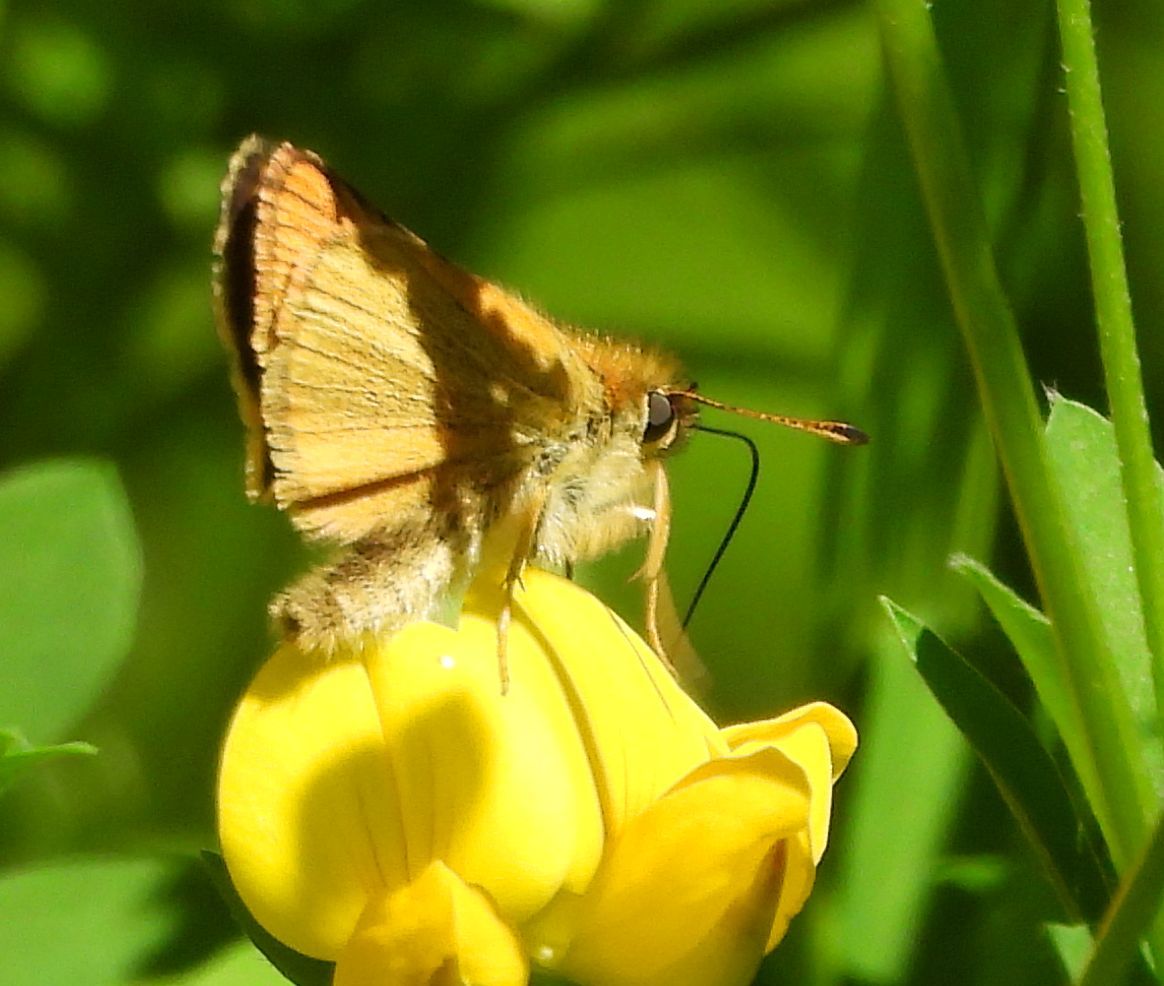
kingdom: Animalia
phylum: Arthropoda
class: Insecta
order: Lepidoptera
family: Hesperiidae
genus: Thymelicus
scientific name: Thymelicus lineola
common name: Essex skipper
